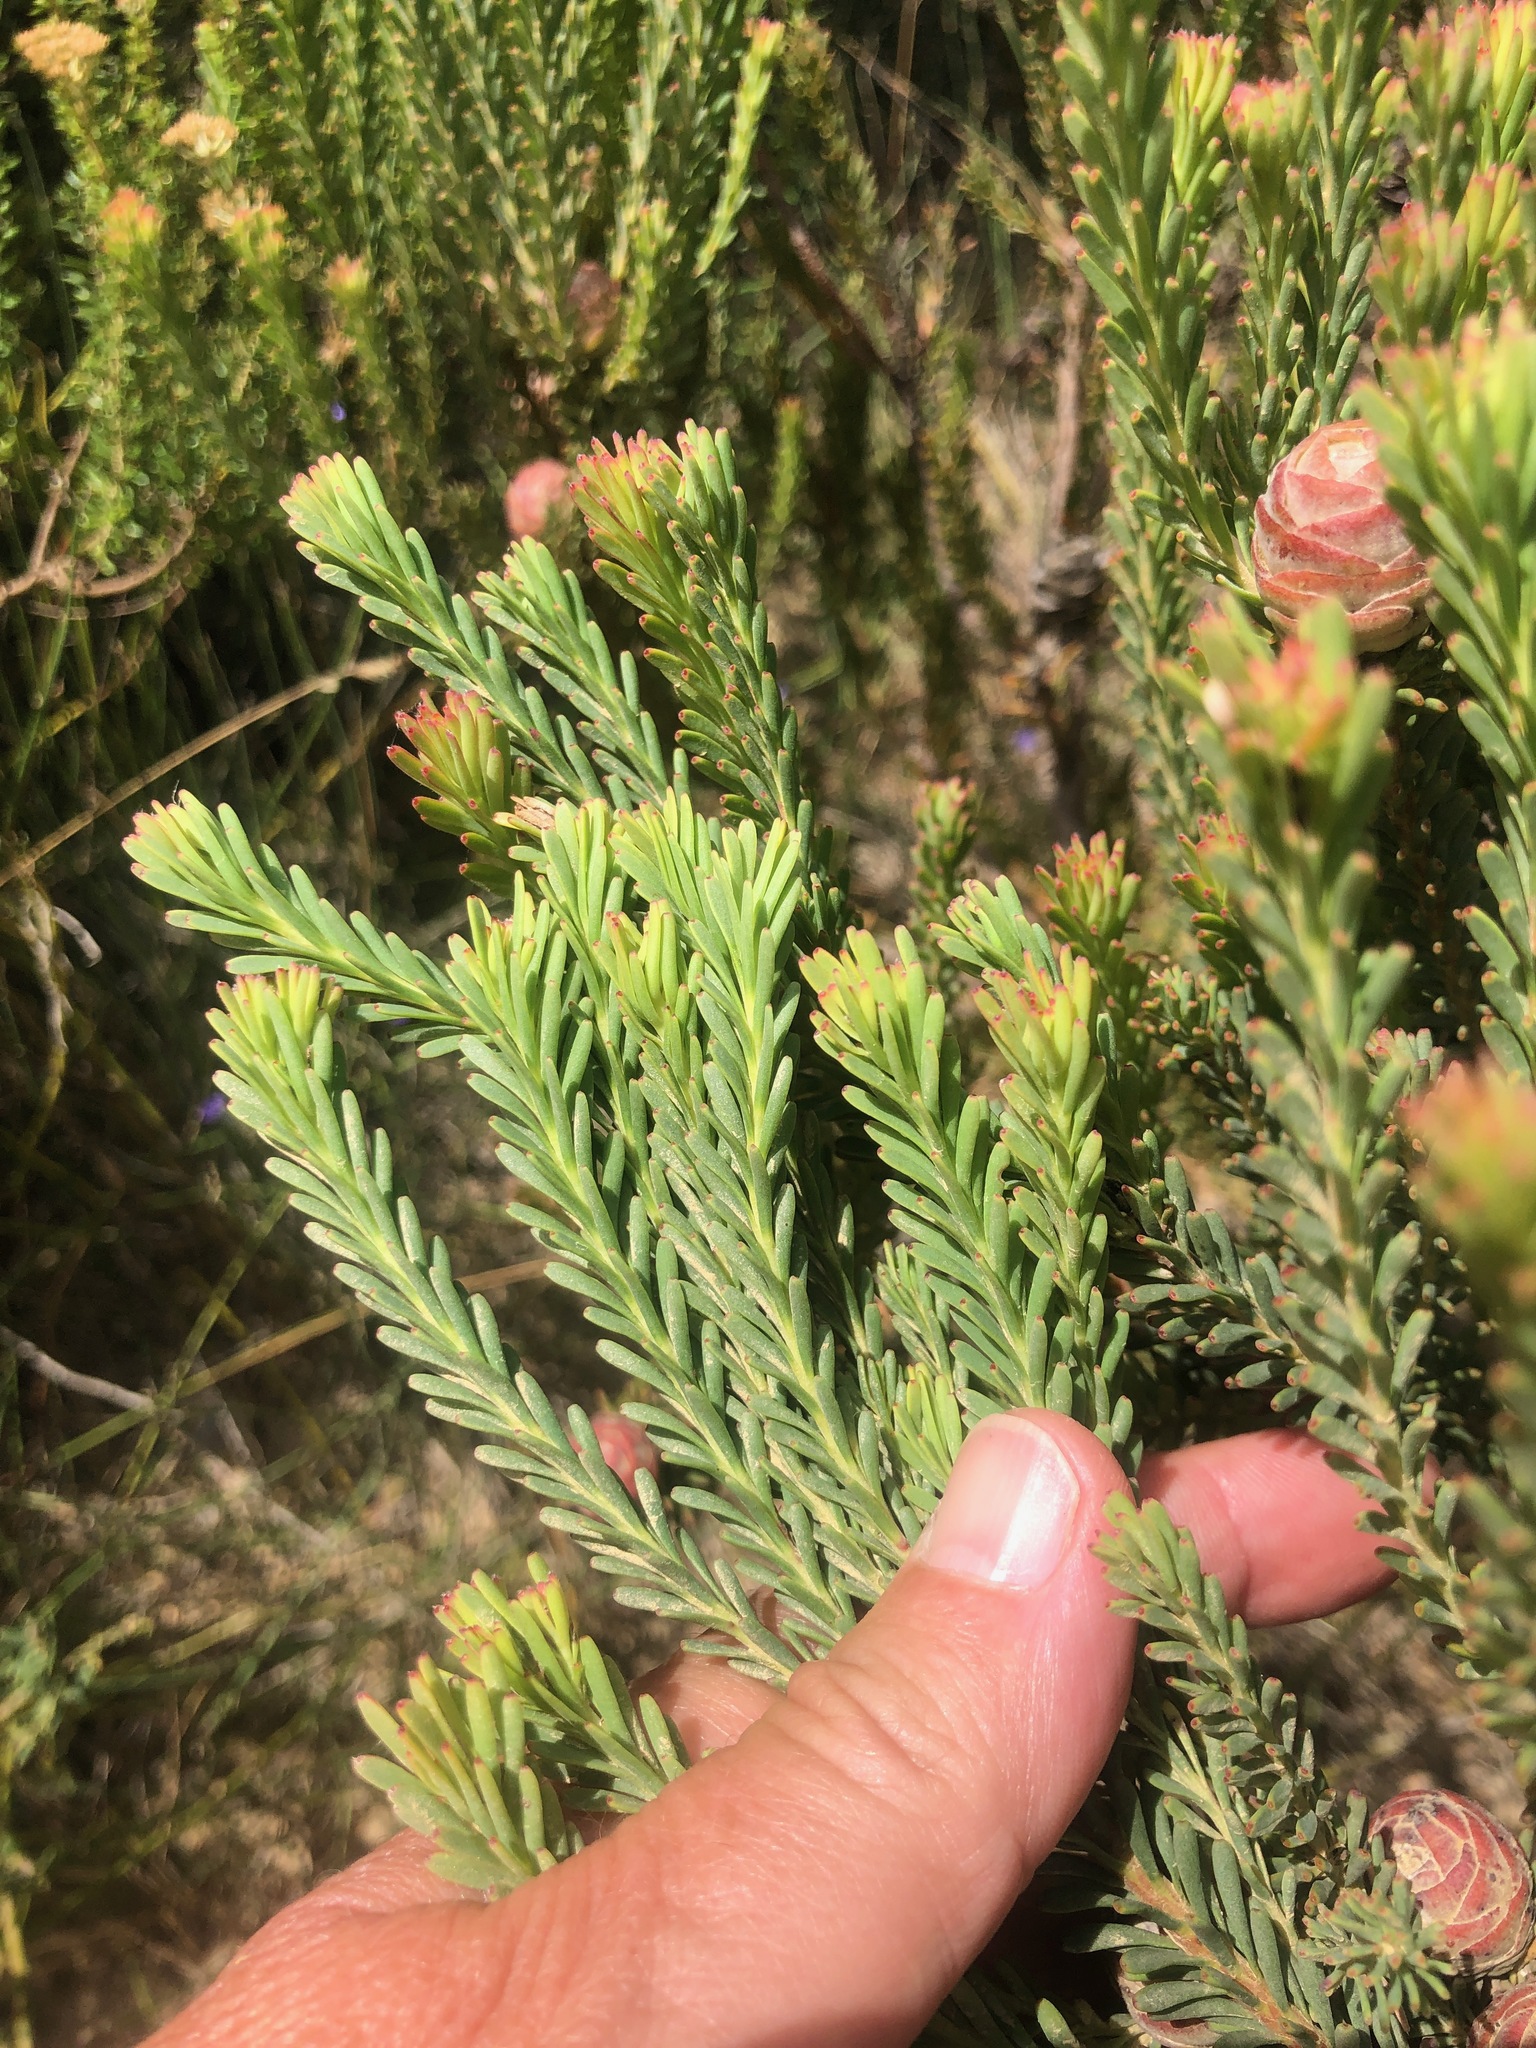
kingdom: Plantae
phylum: Tracheophyta
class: Magnoliopsida
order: Proteales
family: Proteaceae
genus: Leucadendron
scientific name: Leucadendron linifolium
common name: Line-leaf conebush
